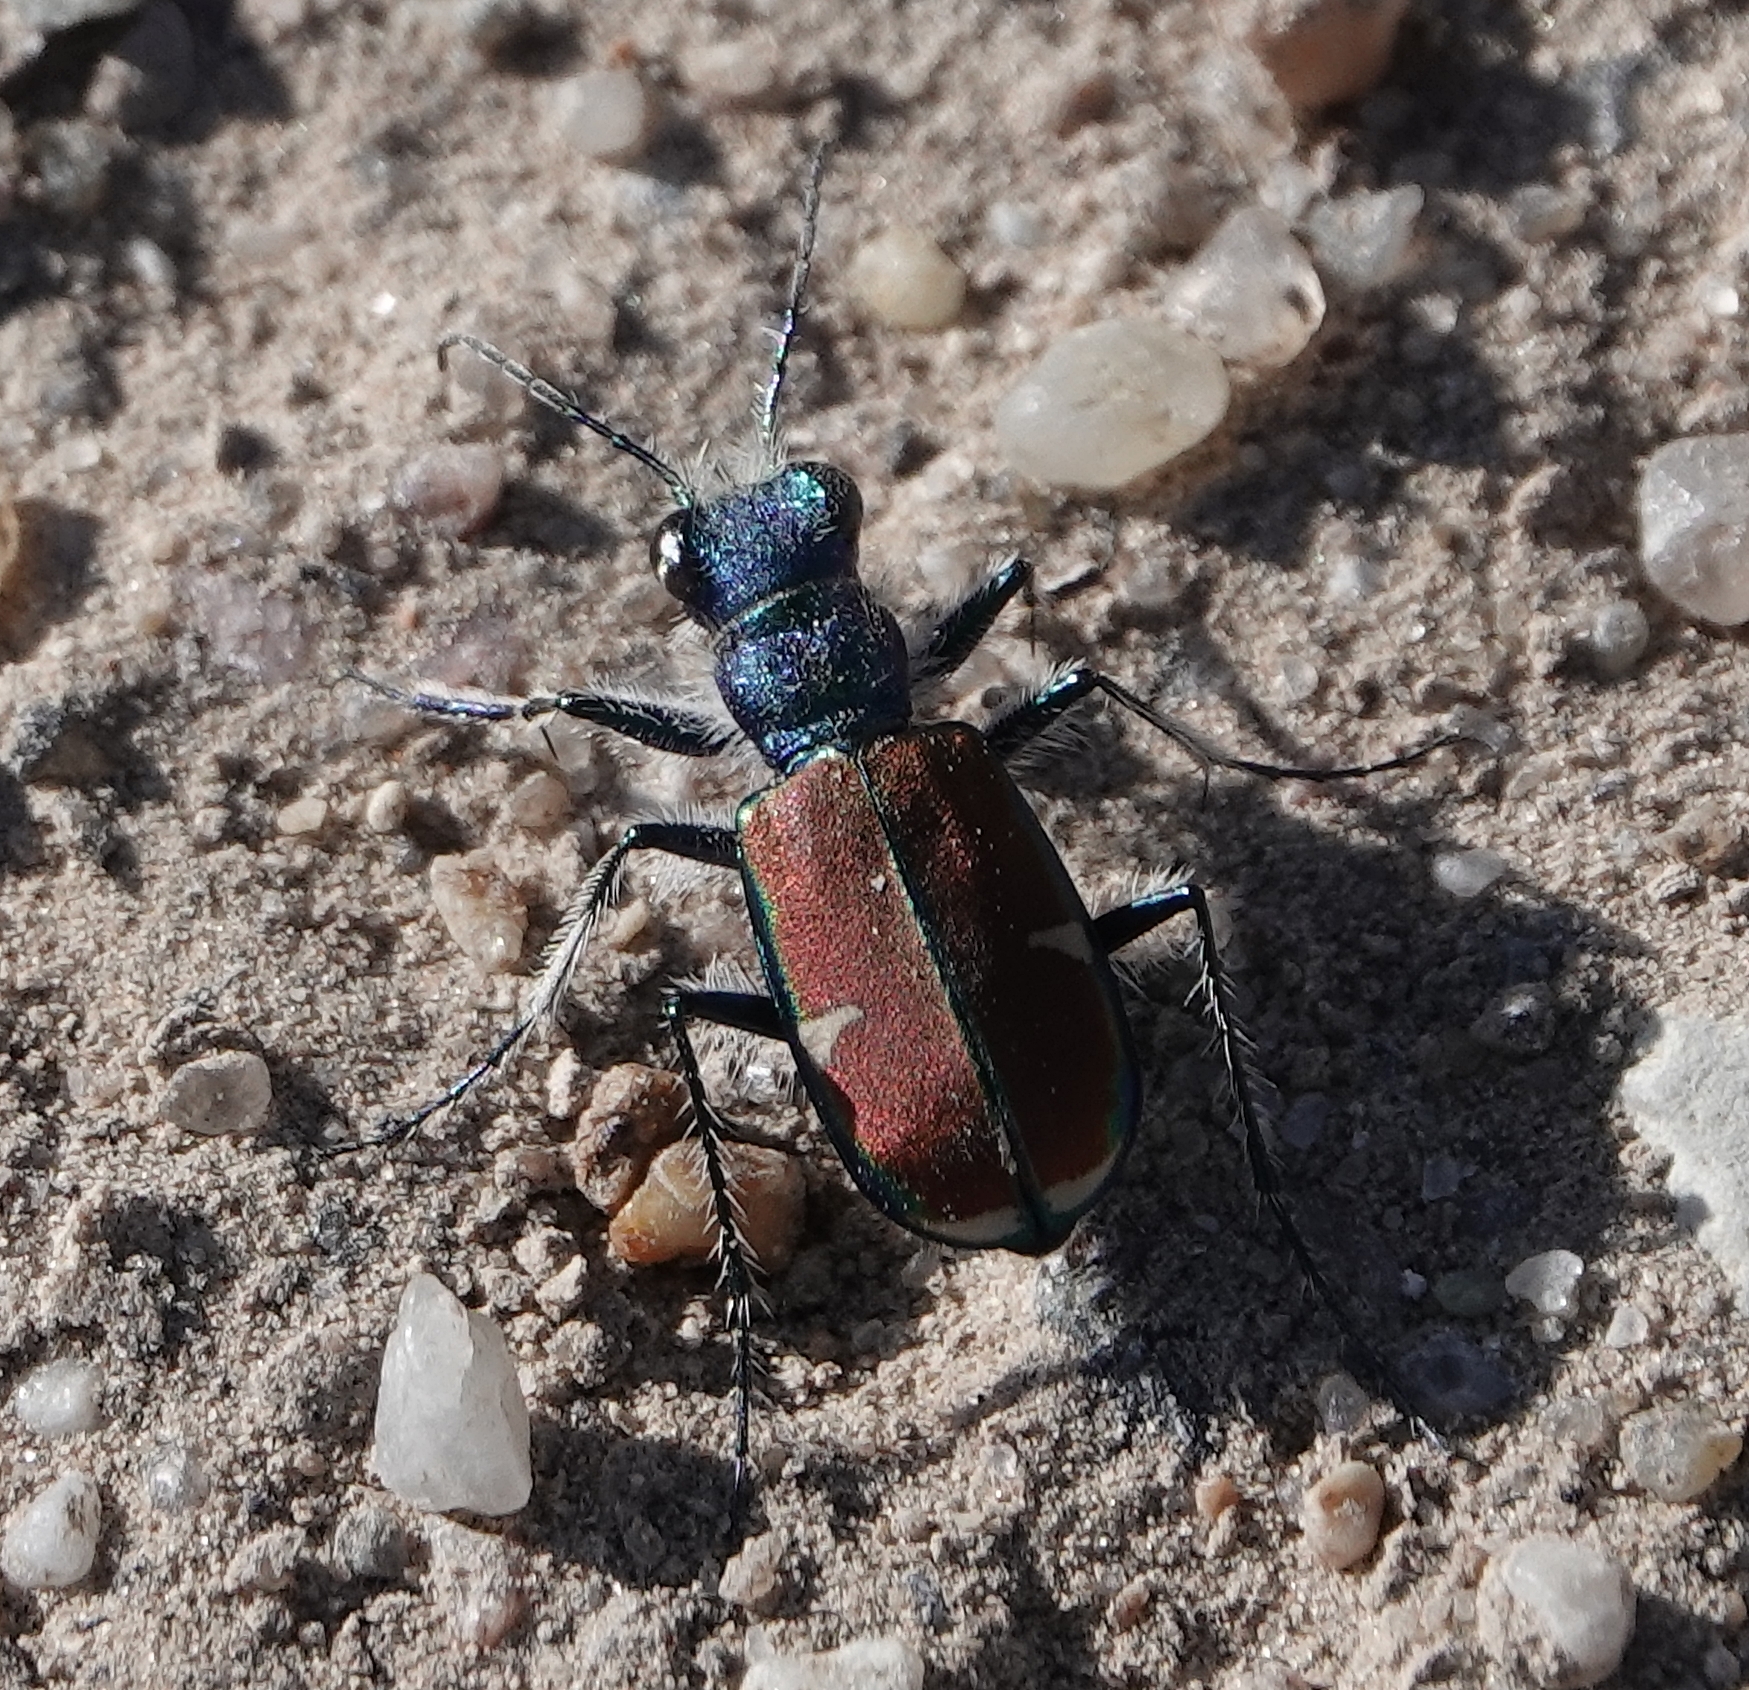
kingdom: Animalia
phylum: Arthropoda
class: Insecta
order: Coleoptera
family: Carabidae
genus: Cicindela
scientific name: Cicindela splendida
